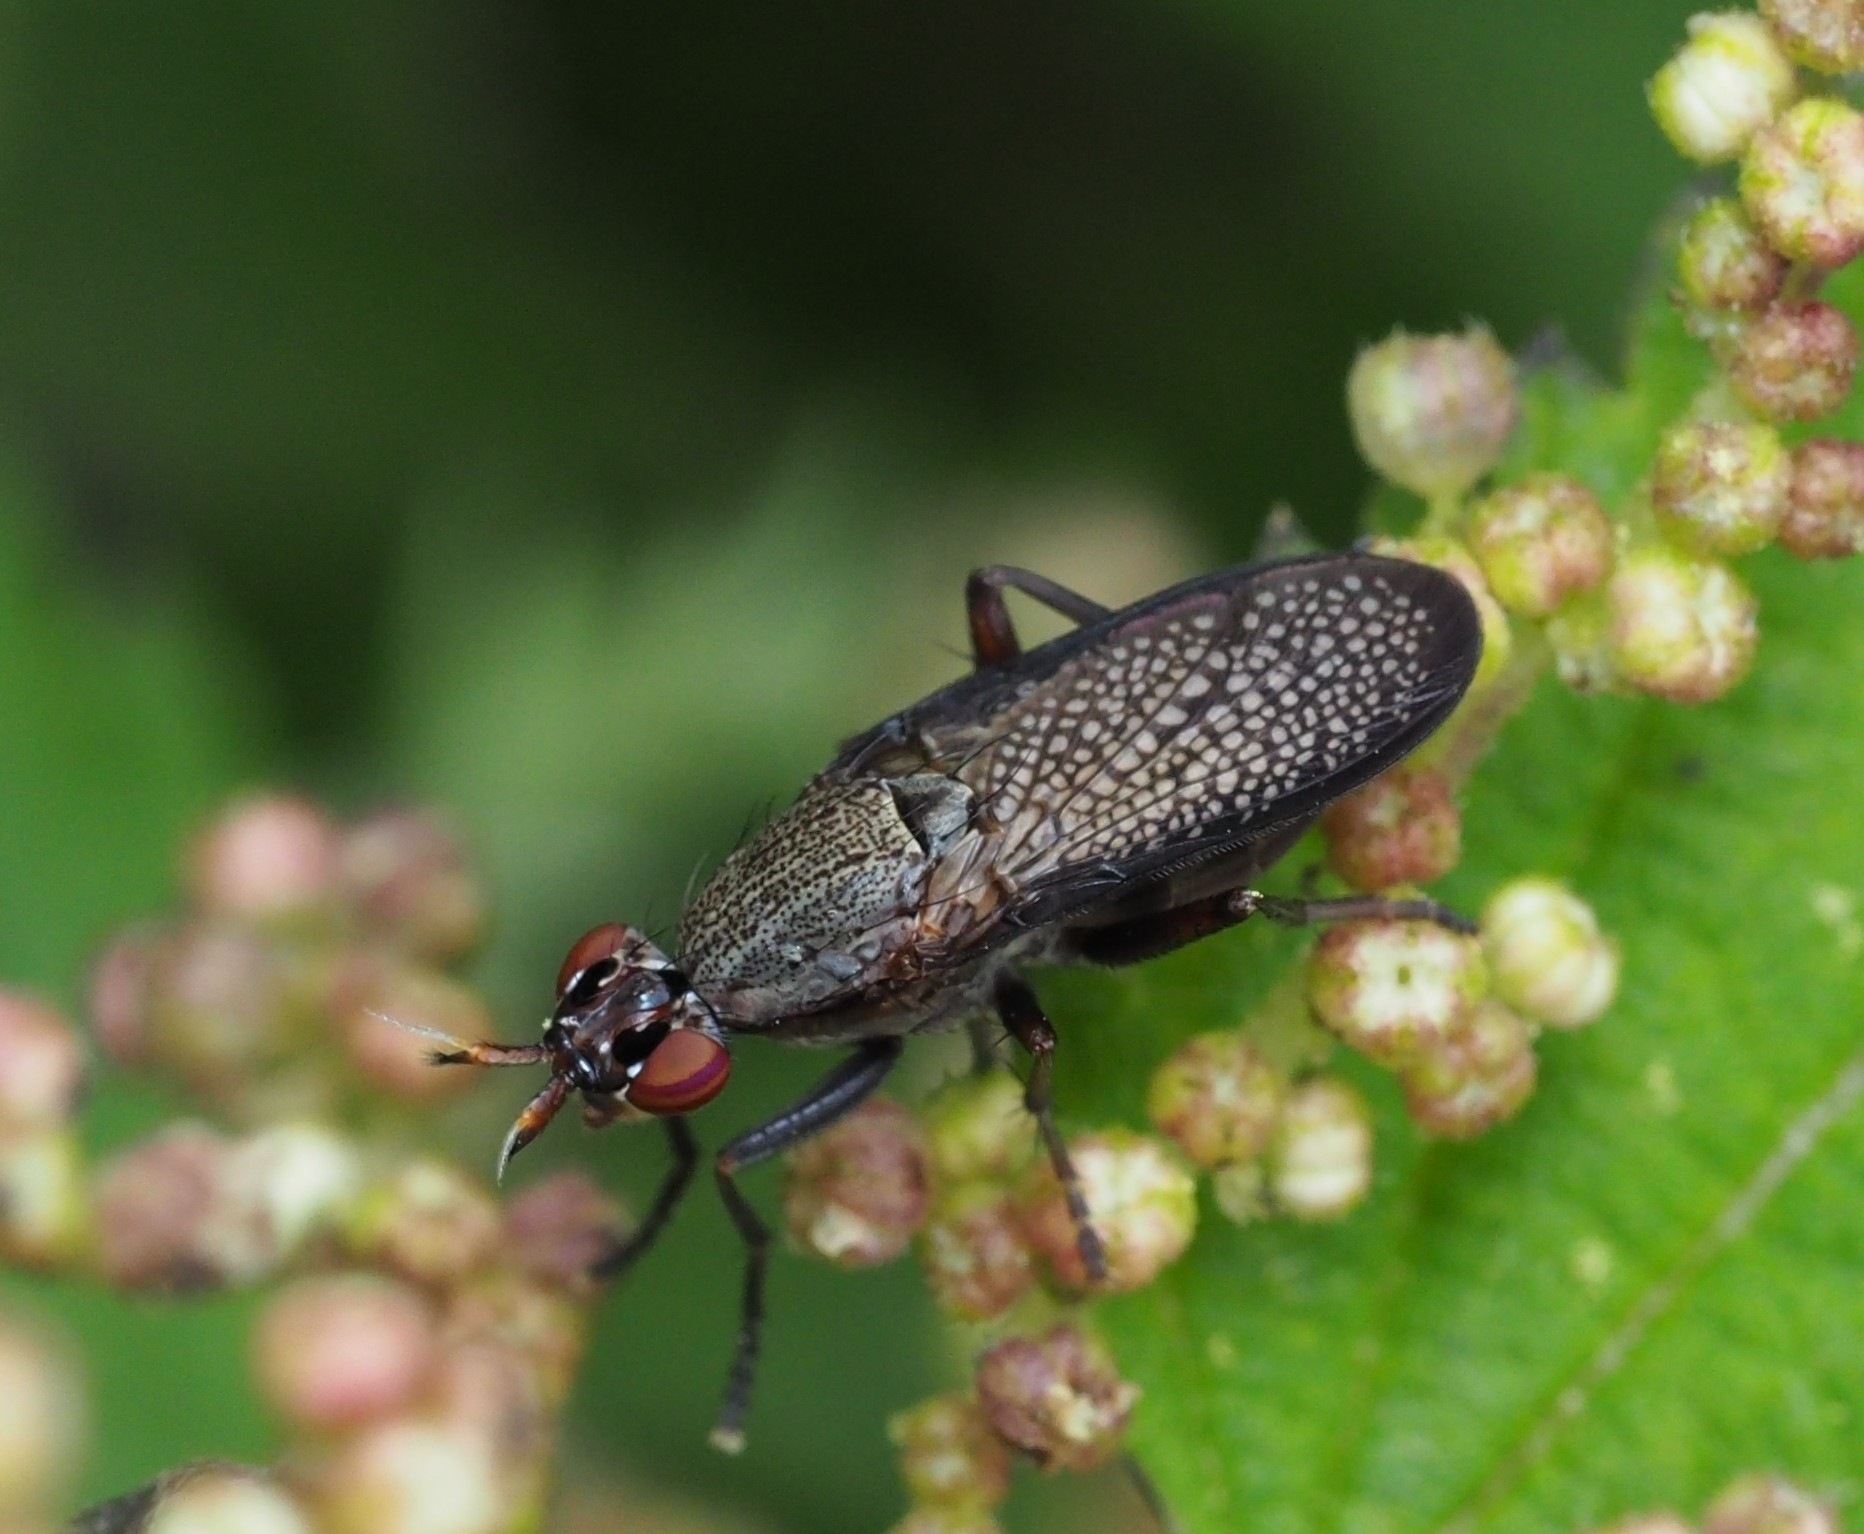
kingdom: Animalia
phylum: Arthropoda
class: Insecta
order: Diptera
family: Sciomyzidae
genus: Coremacera
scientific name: Coremacera marginata
